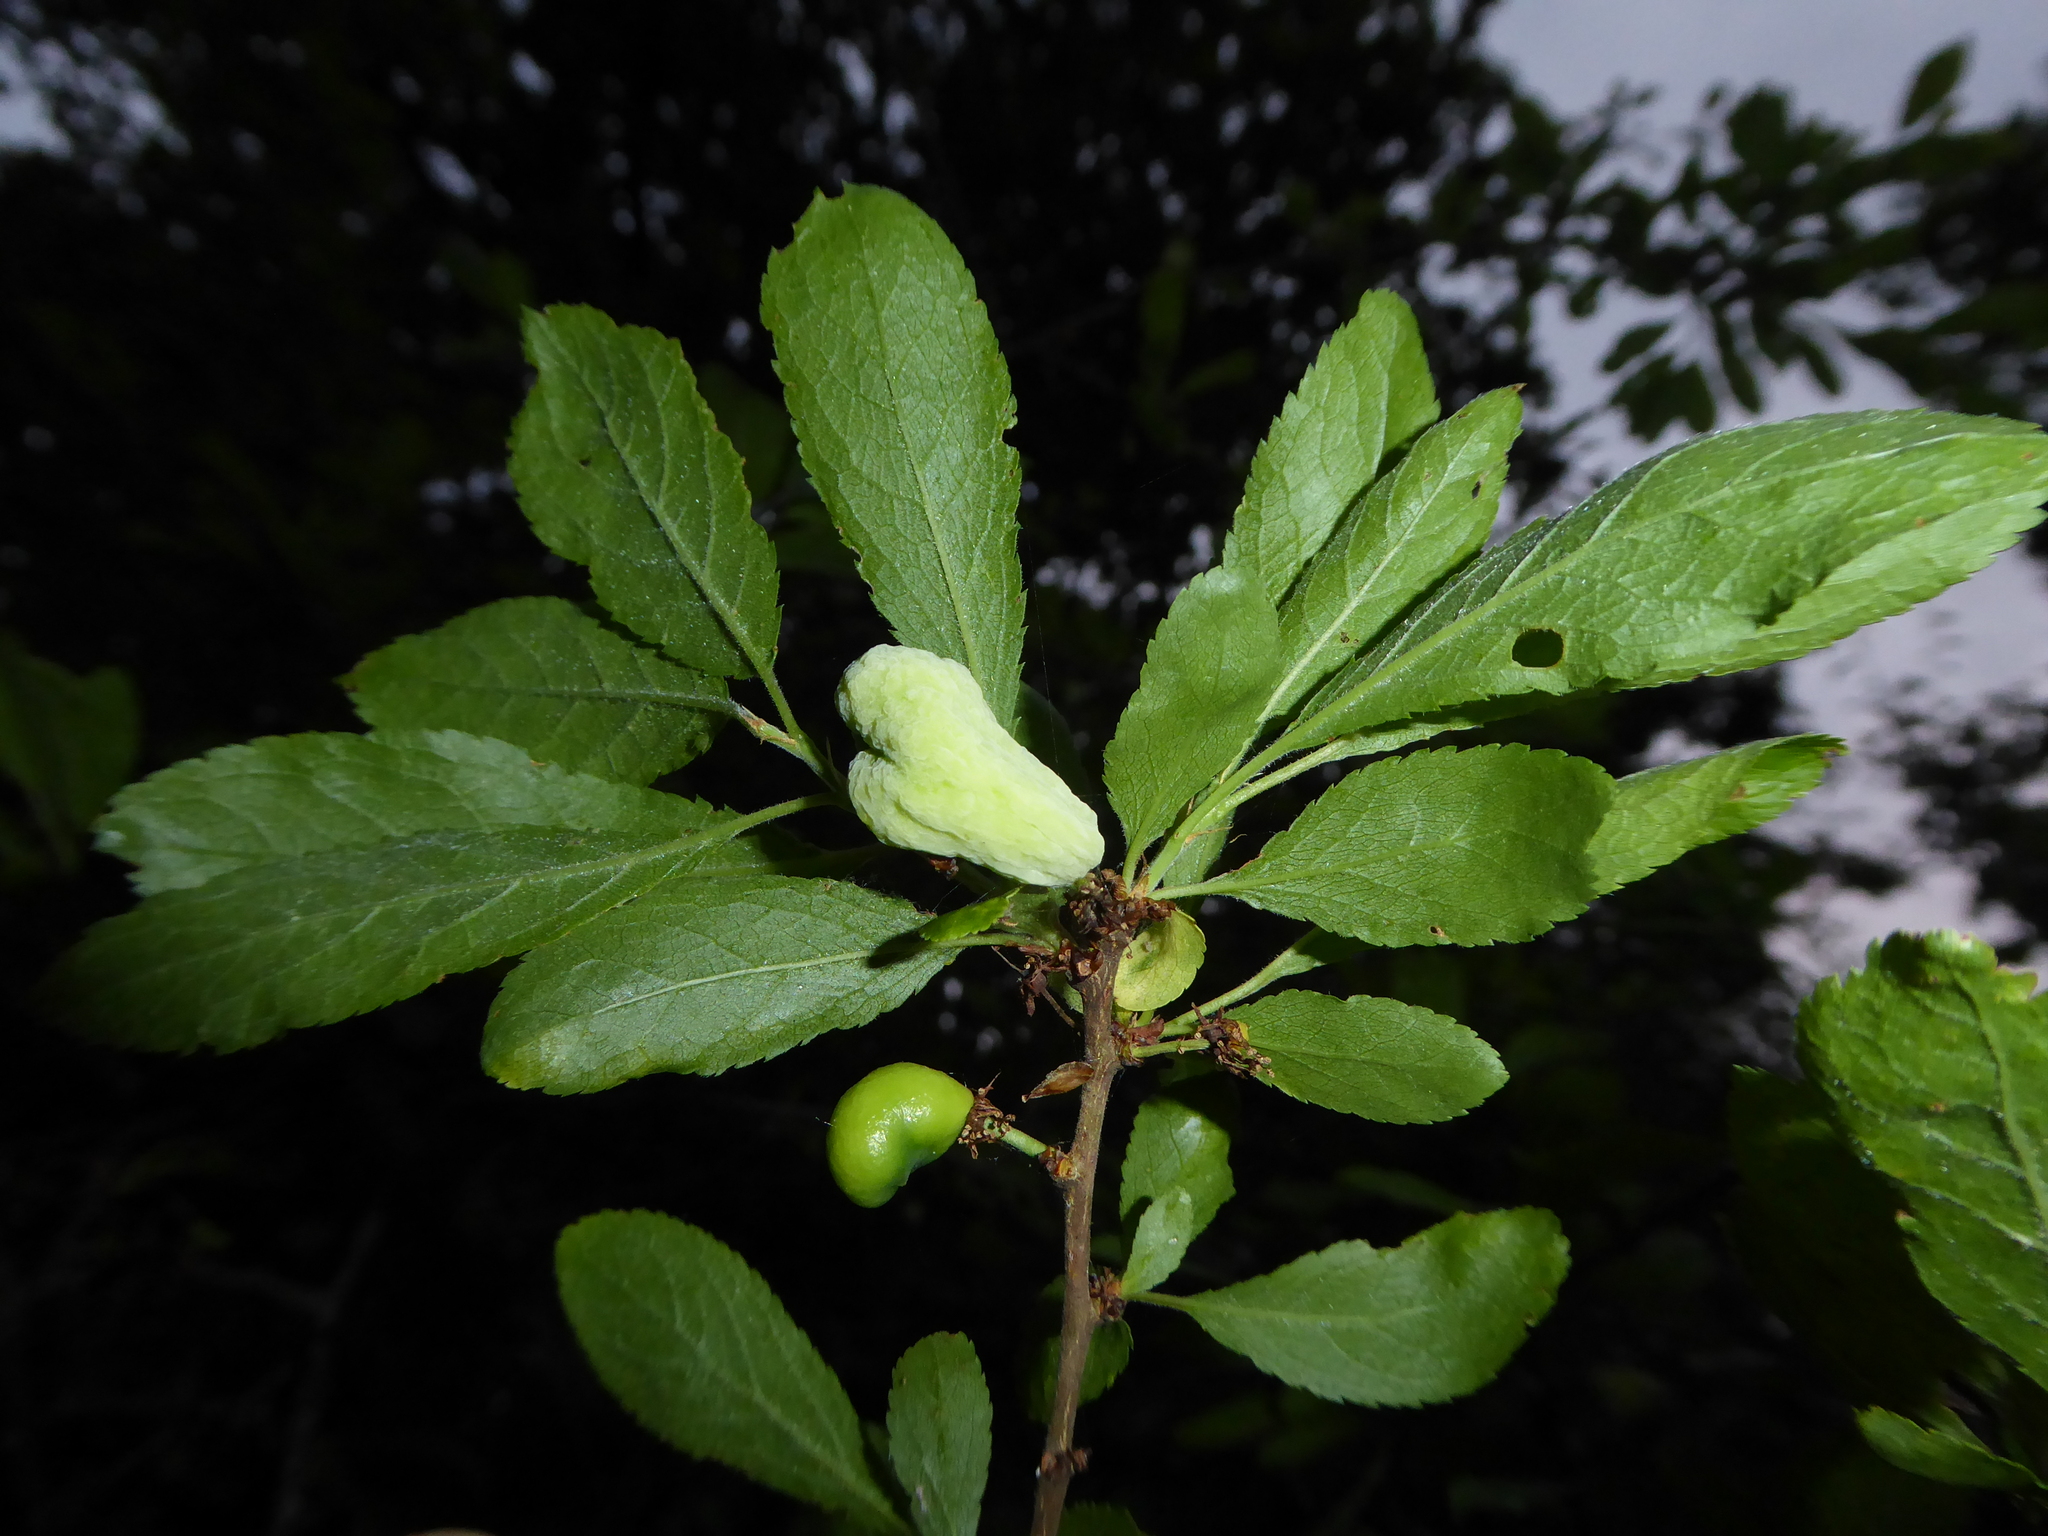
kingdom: Fungi
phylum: Ascomycota
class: Taphrinomycetes
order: Taphrinales
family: Taphrinaceae
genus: Taphrina
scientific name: Taphrina pruni
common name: Pocket plum
